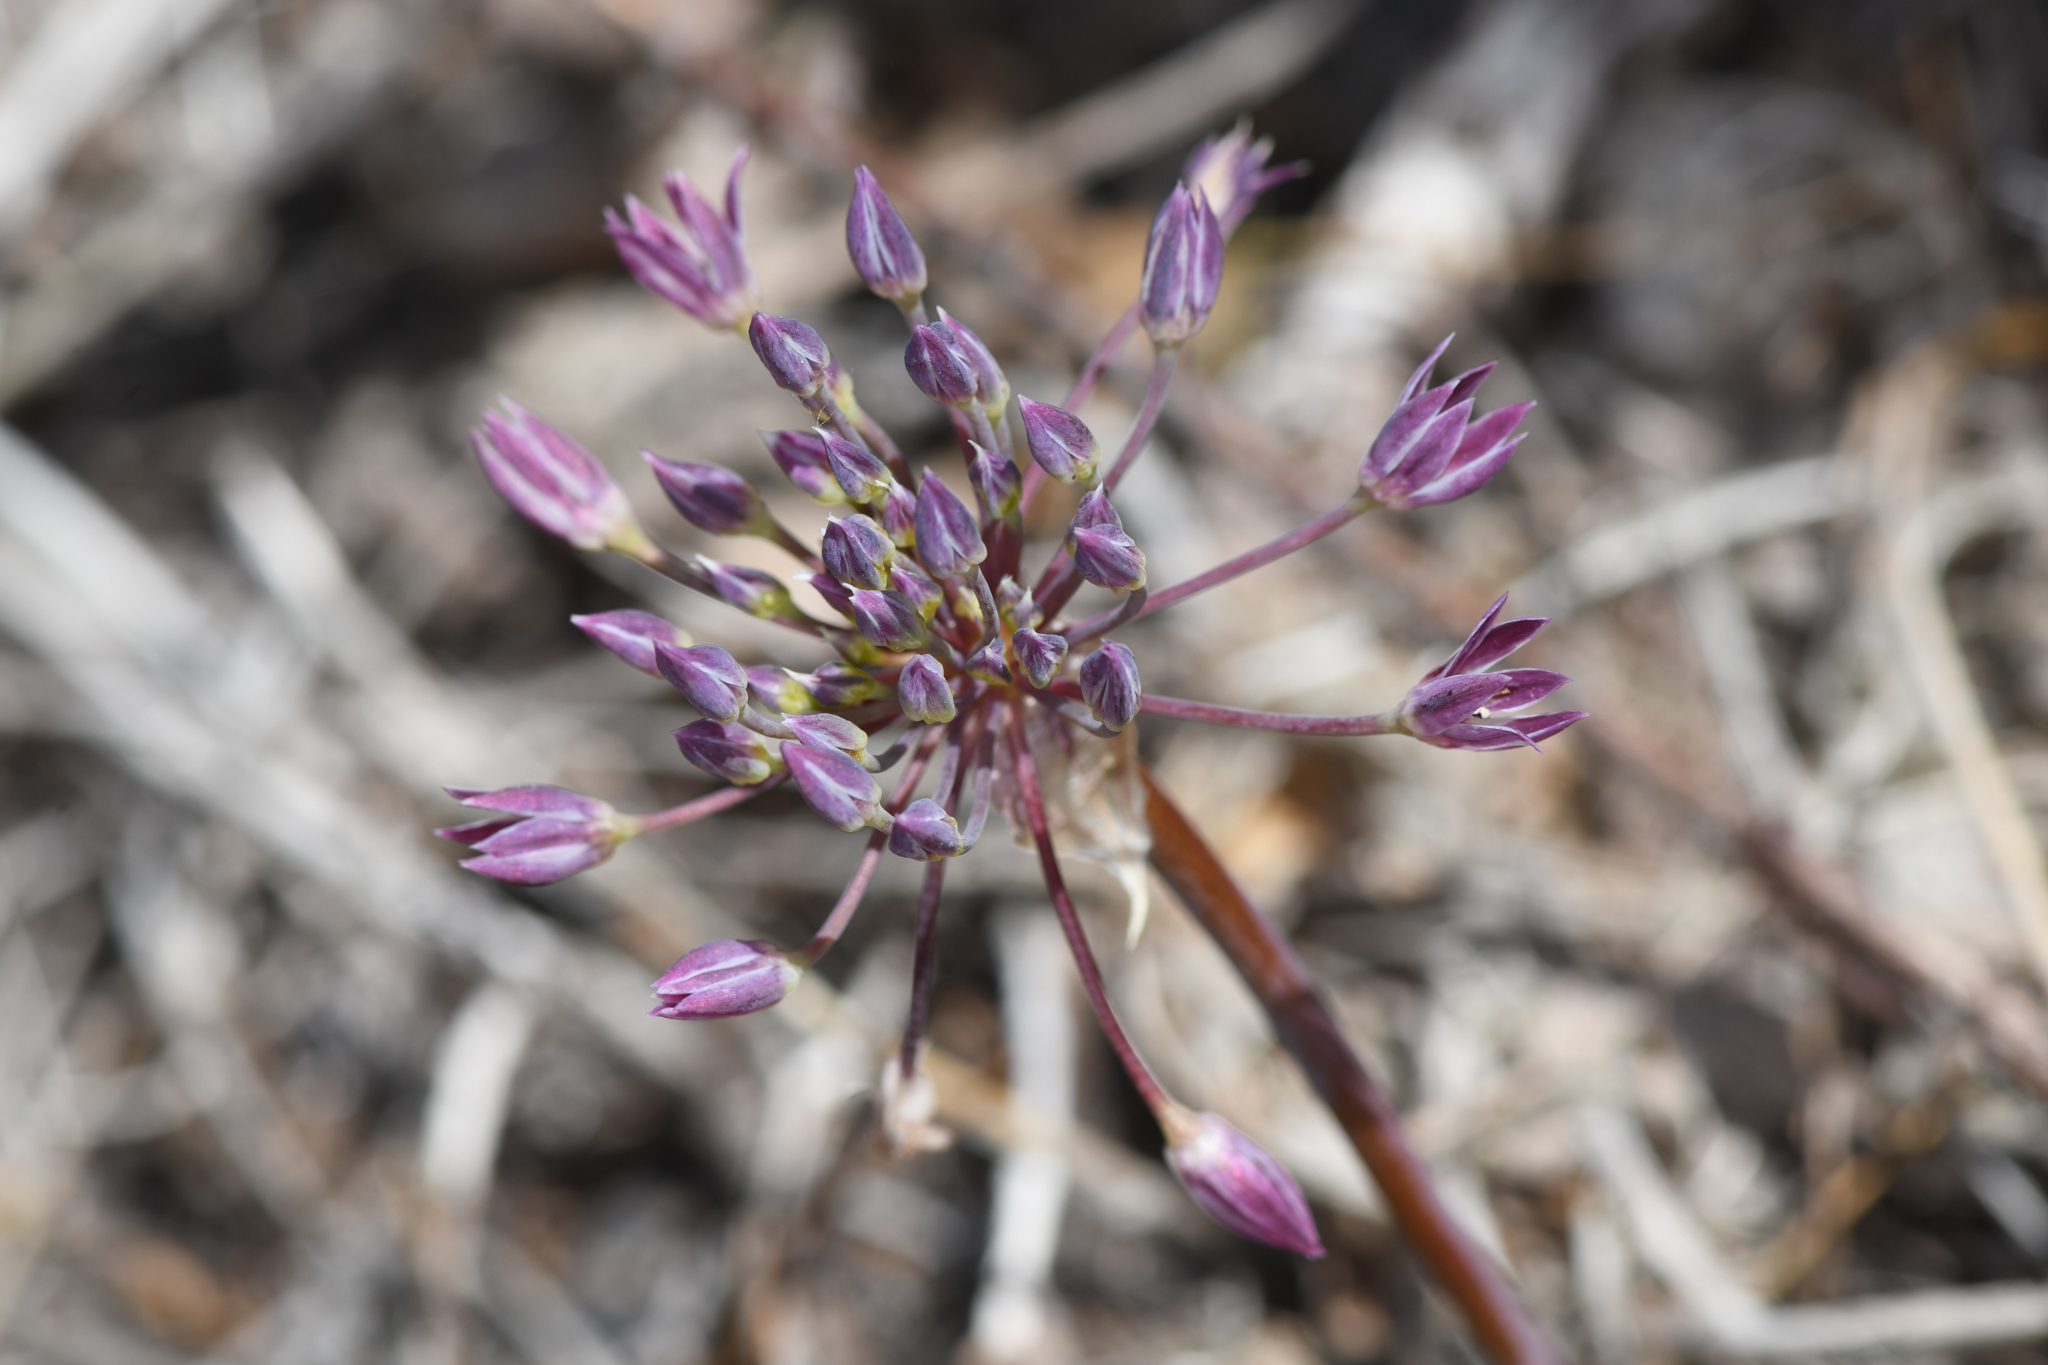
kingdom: Plantae
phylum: Tracheophyta
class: Liliopsida
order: Asparagales
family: Amaryllidaceae
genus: Allium
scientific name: Allium campanulatum
